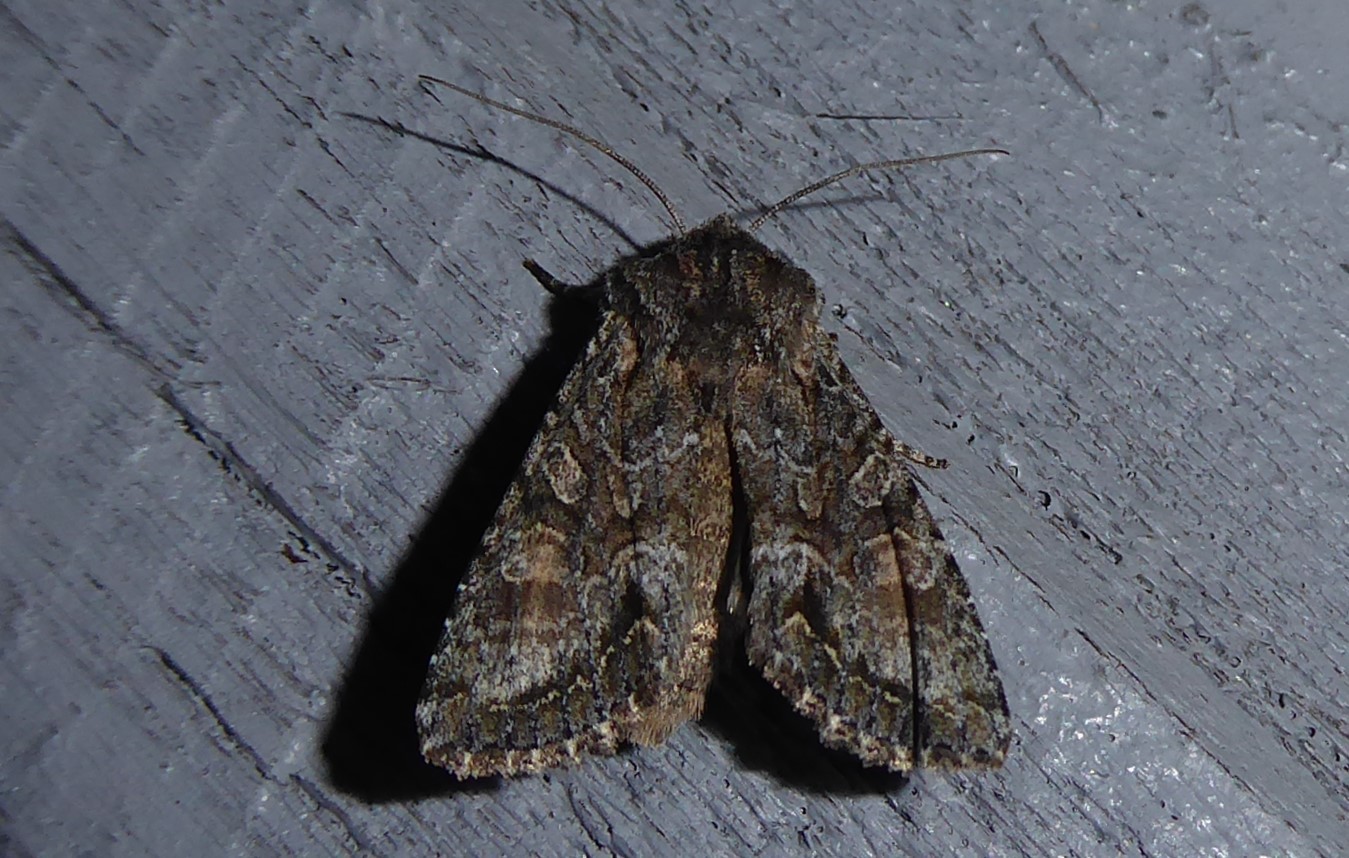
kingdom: Animalia
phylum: Arthropoda
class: Insecta
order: Lepidoptera
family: Noctuidae
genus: Ichneutica
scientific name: Ichneutica mutans
